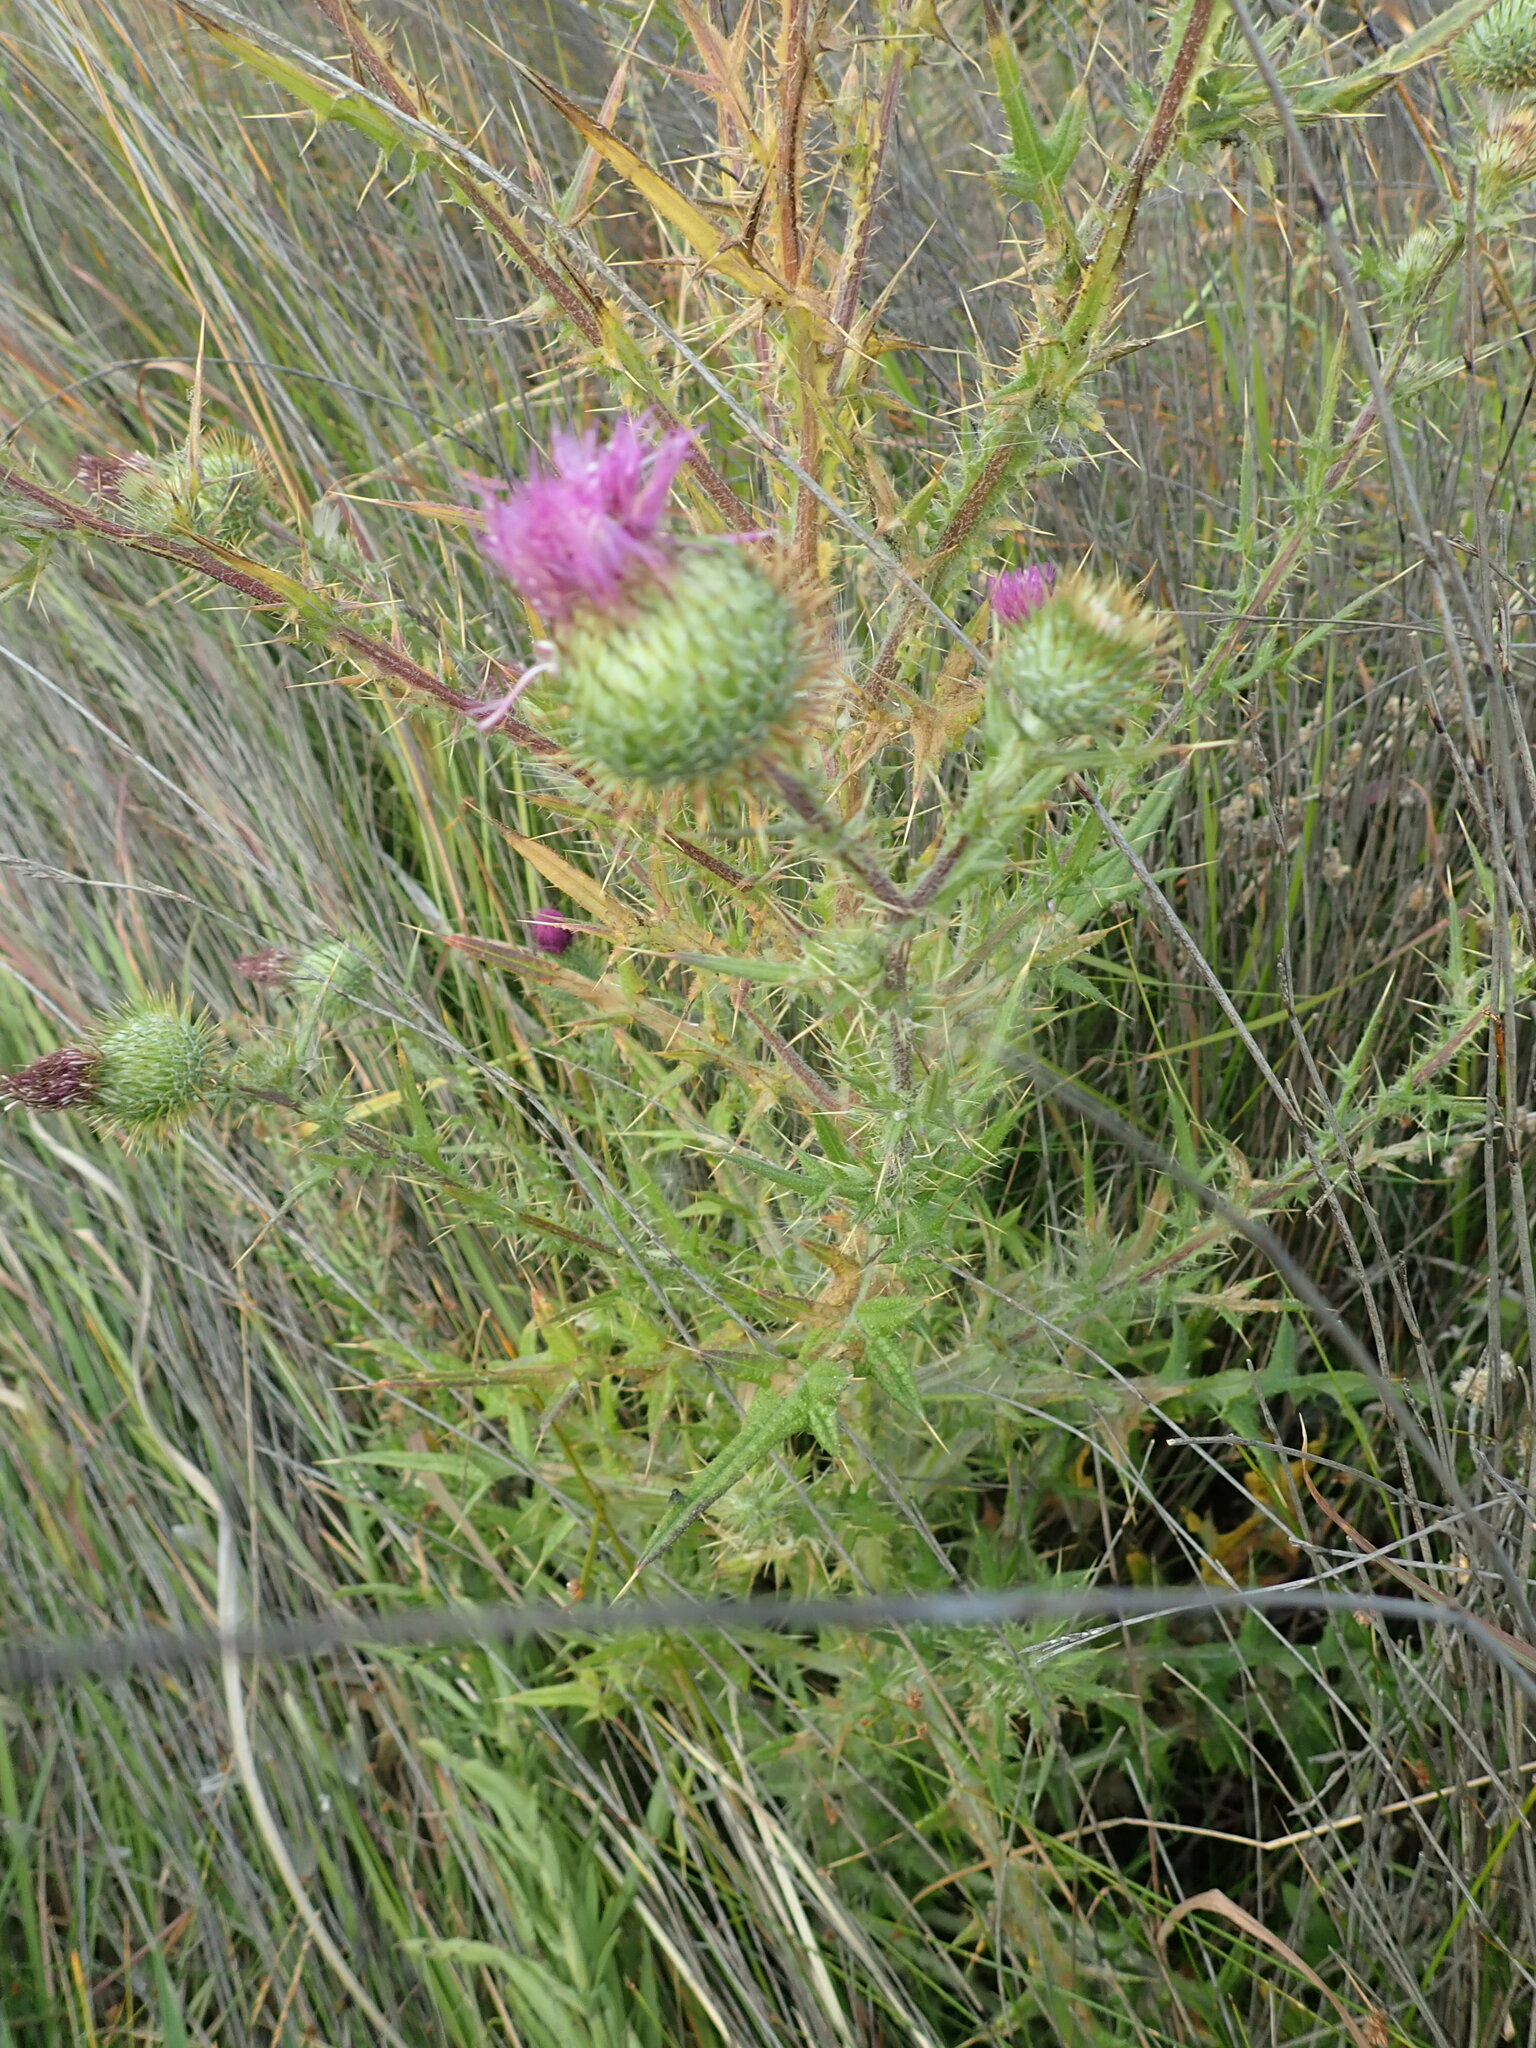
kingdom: Plantae
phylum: Tracheophyta
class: Magnoliopsida
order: Asterales
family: Asteraceae
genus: Cirsium
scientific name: Cirsium vulgare
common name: Bull thistle
